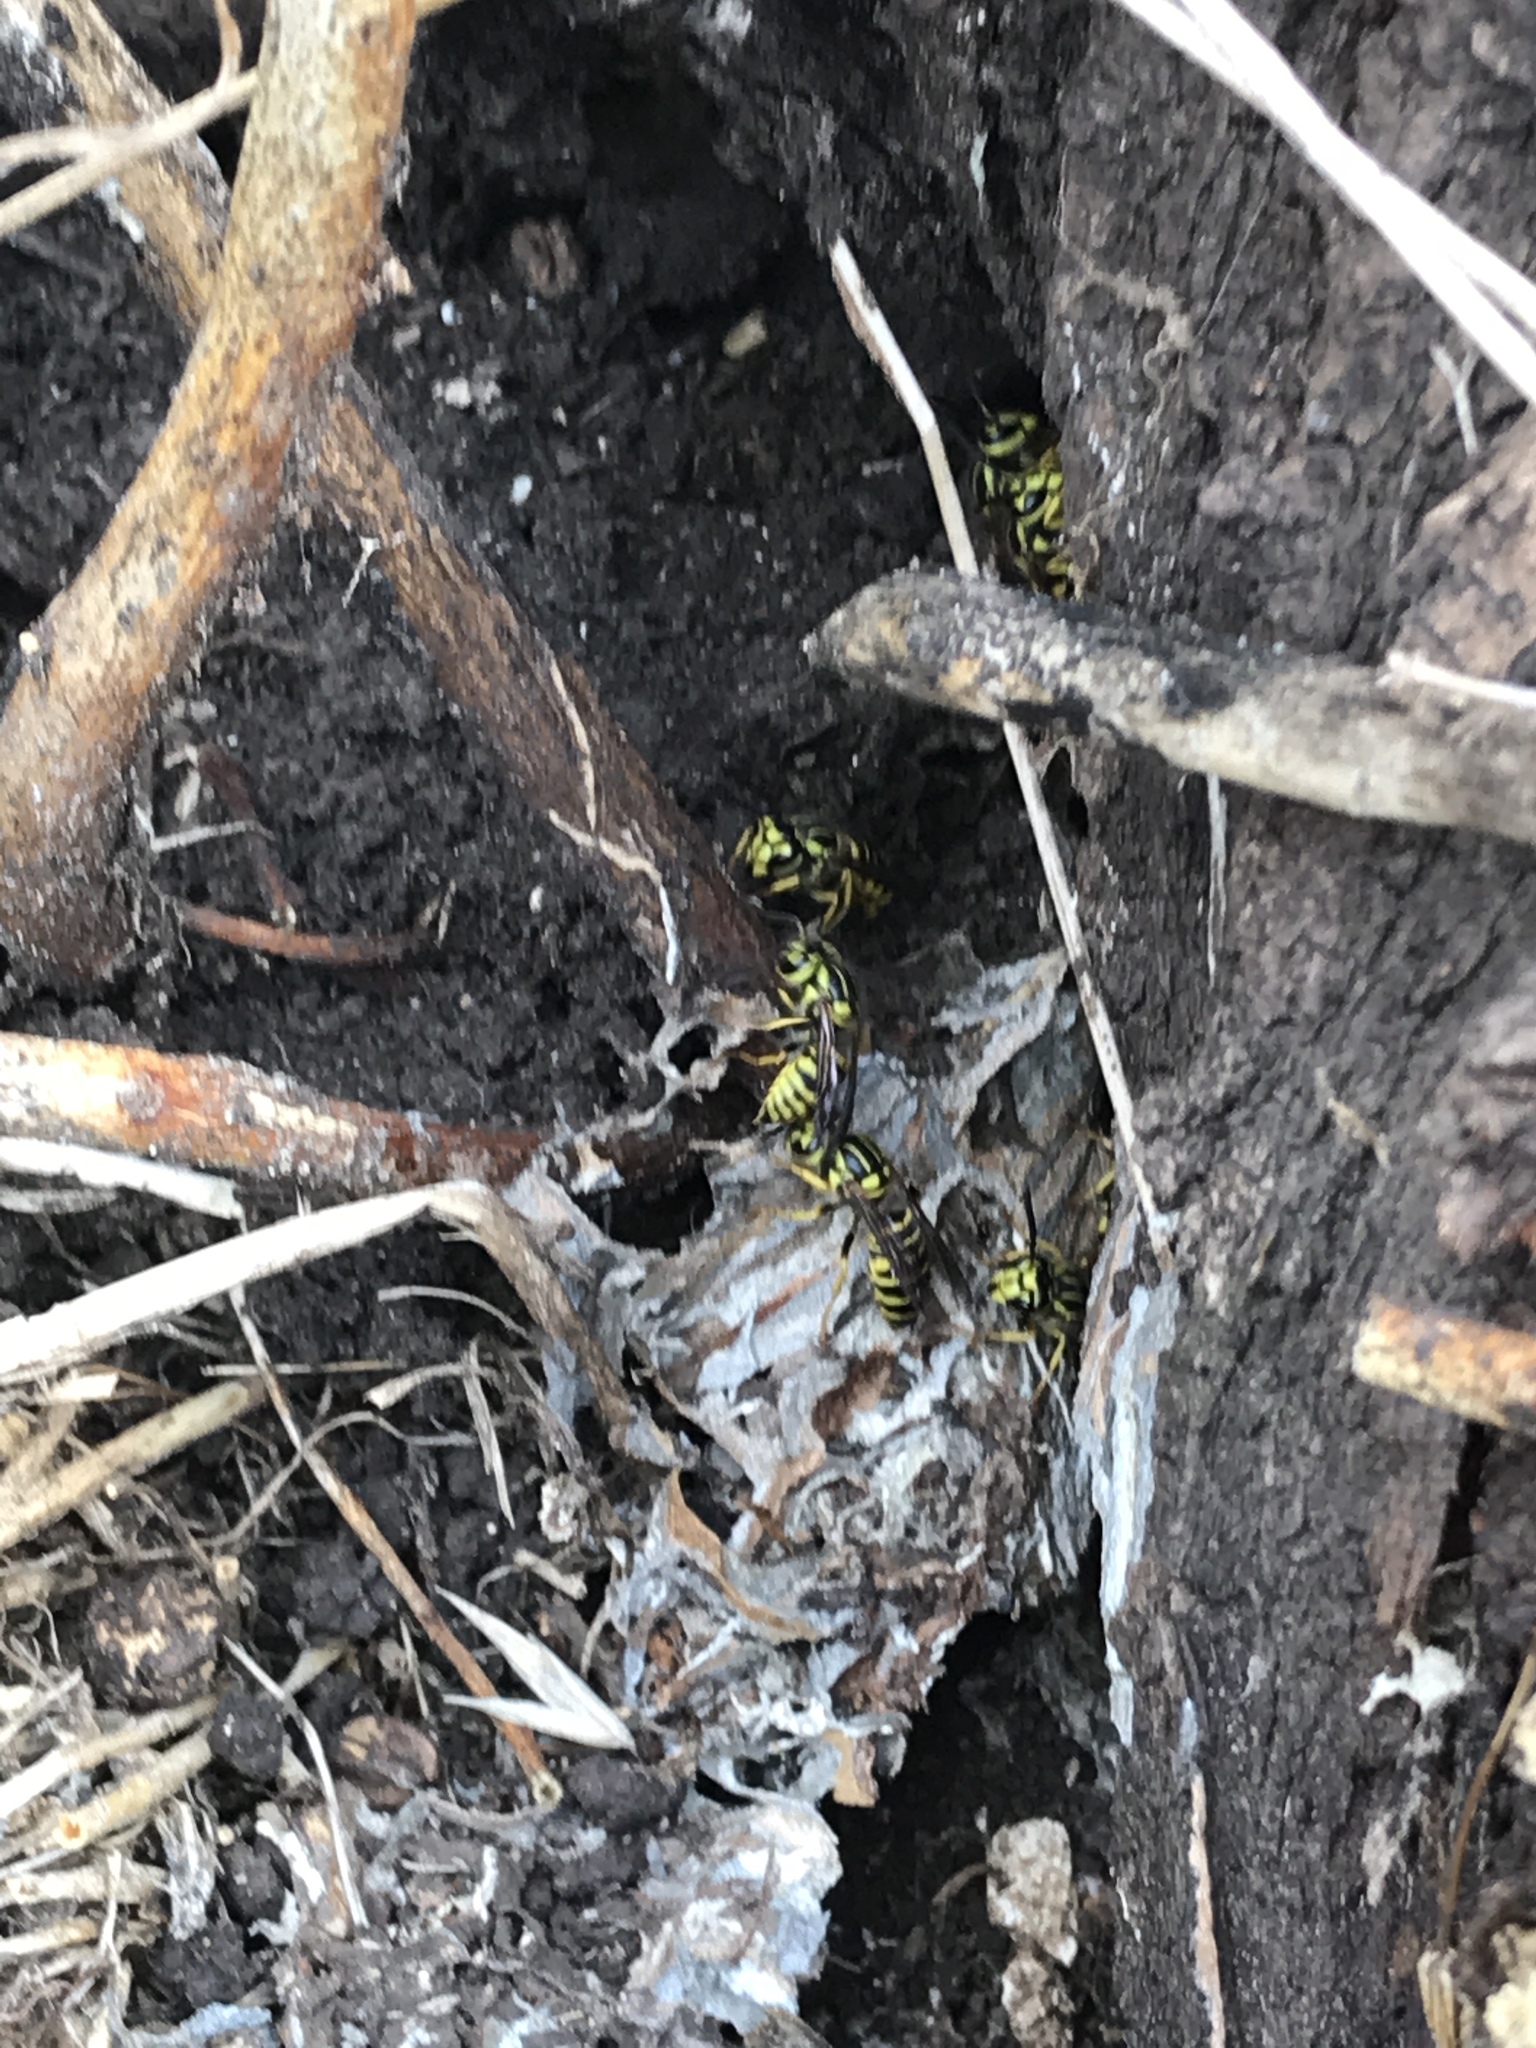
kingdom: Animalia
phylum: Arthropoda
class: Insecta
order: Hymenoptera
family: Vespidae
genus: Vespula
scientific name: Vespula squamosa
